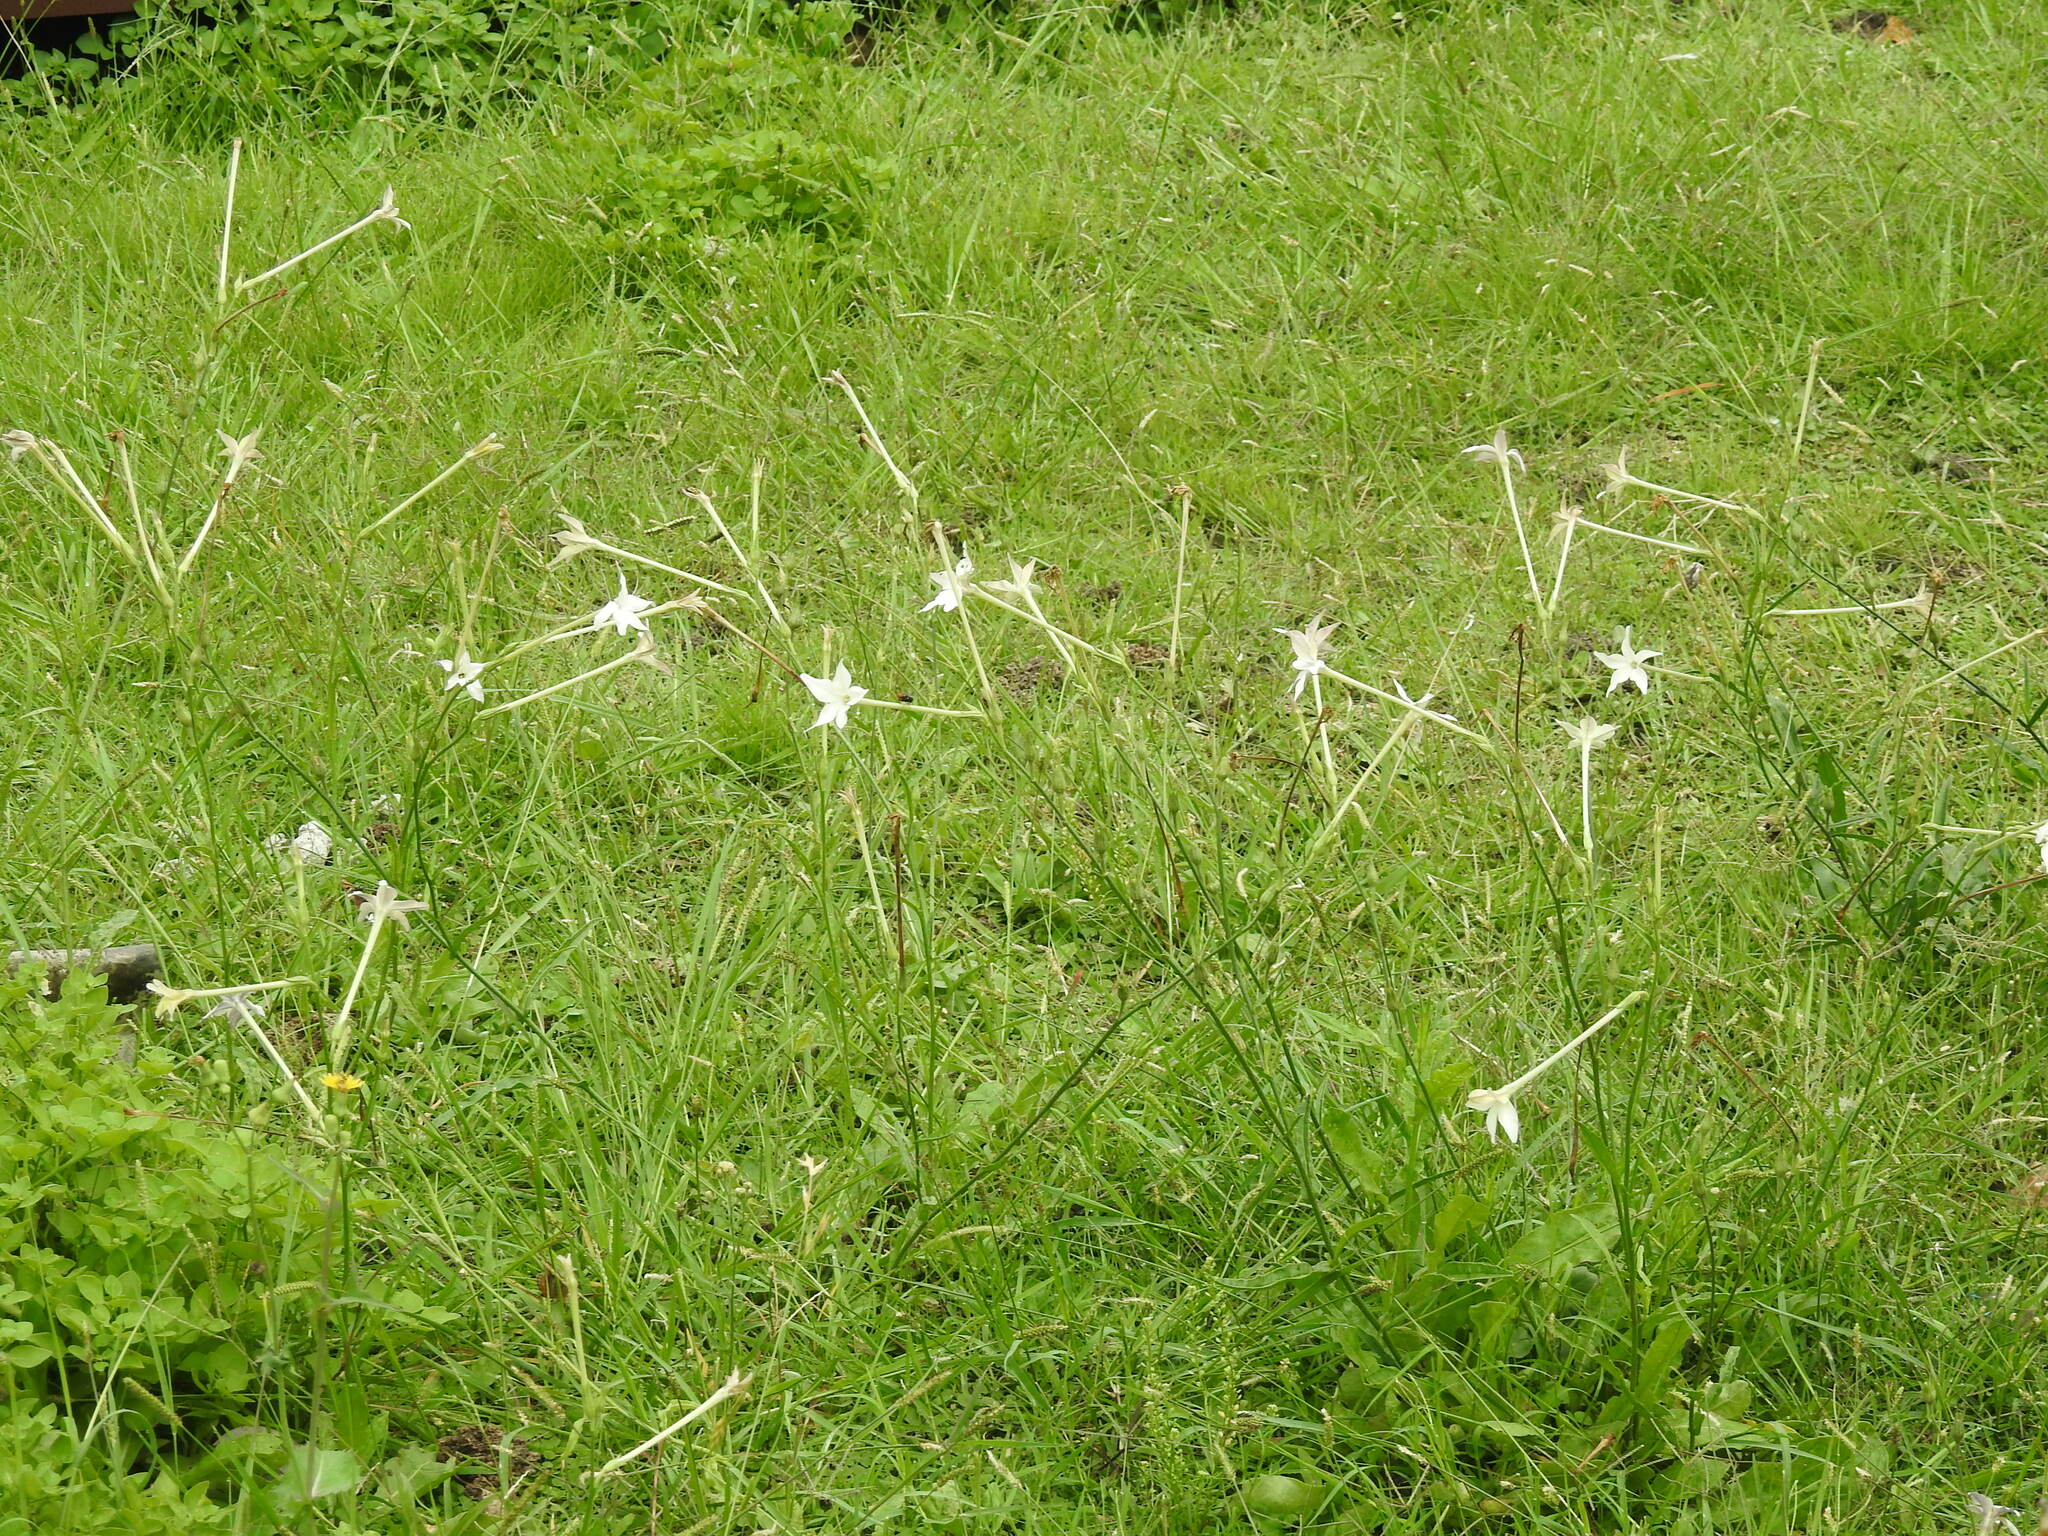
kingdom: Plantae
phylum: Tracheophyta
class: Magnoliopsida
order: Solanales
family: Solanaceae
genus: Nicotiana
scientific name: Nicotiana longiflora
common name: Long-flowered tobacco
